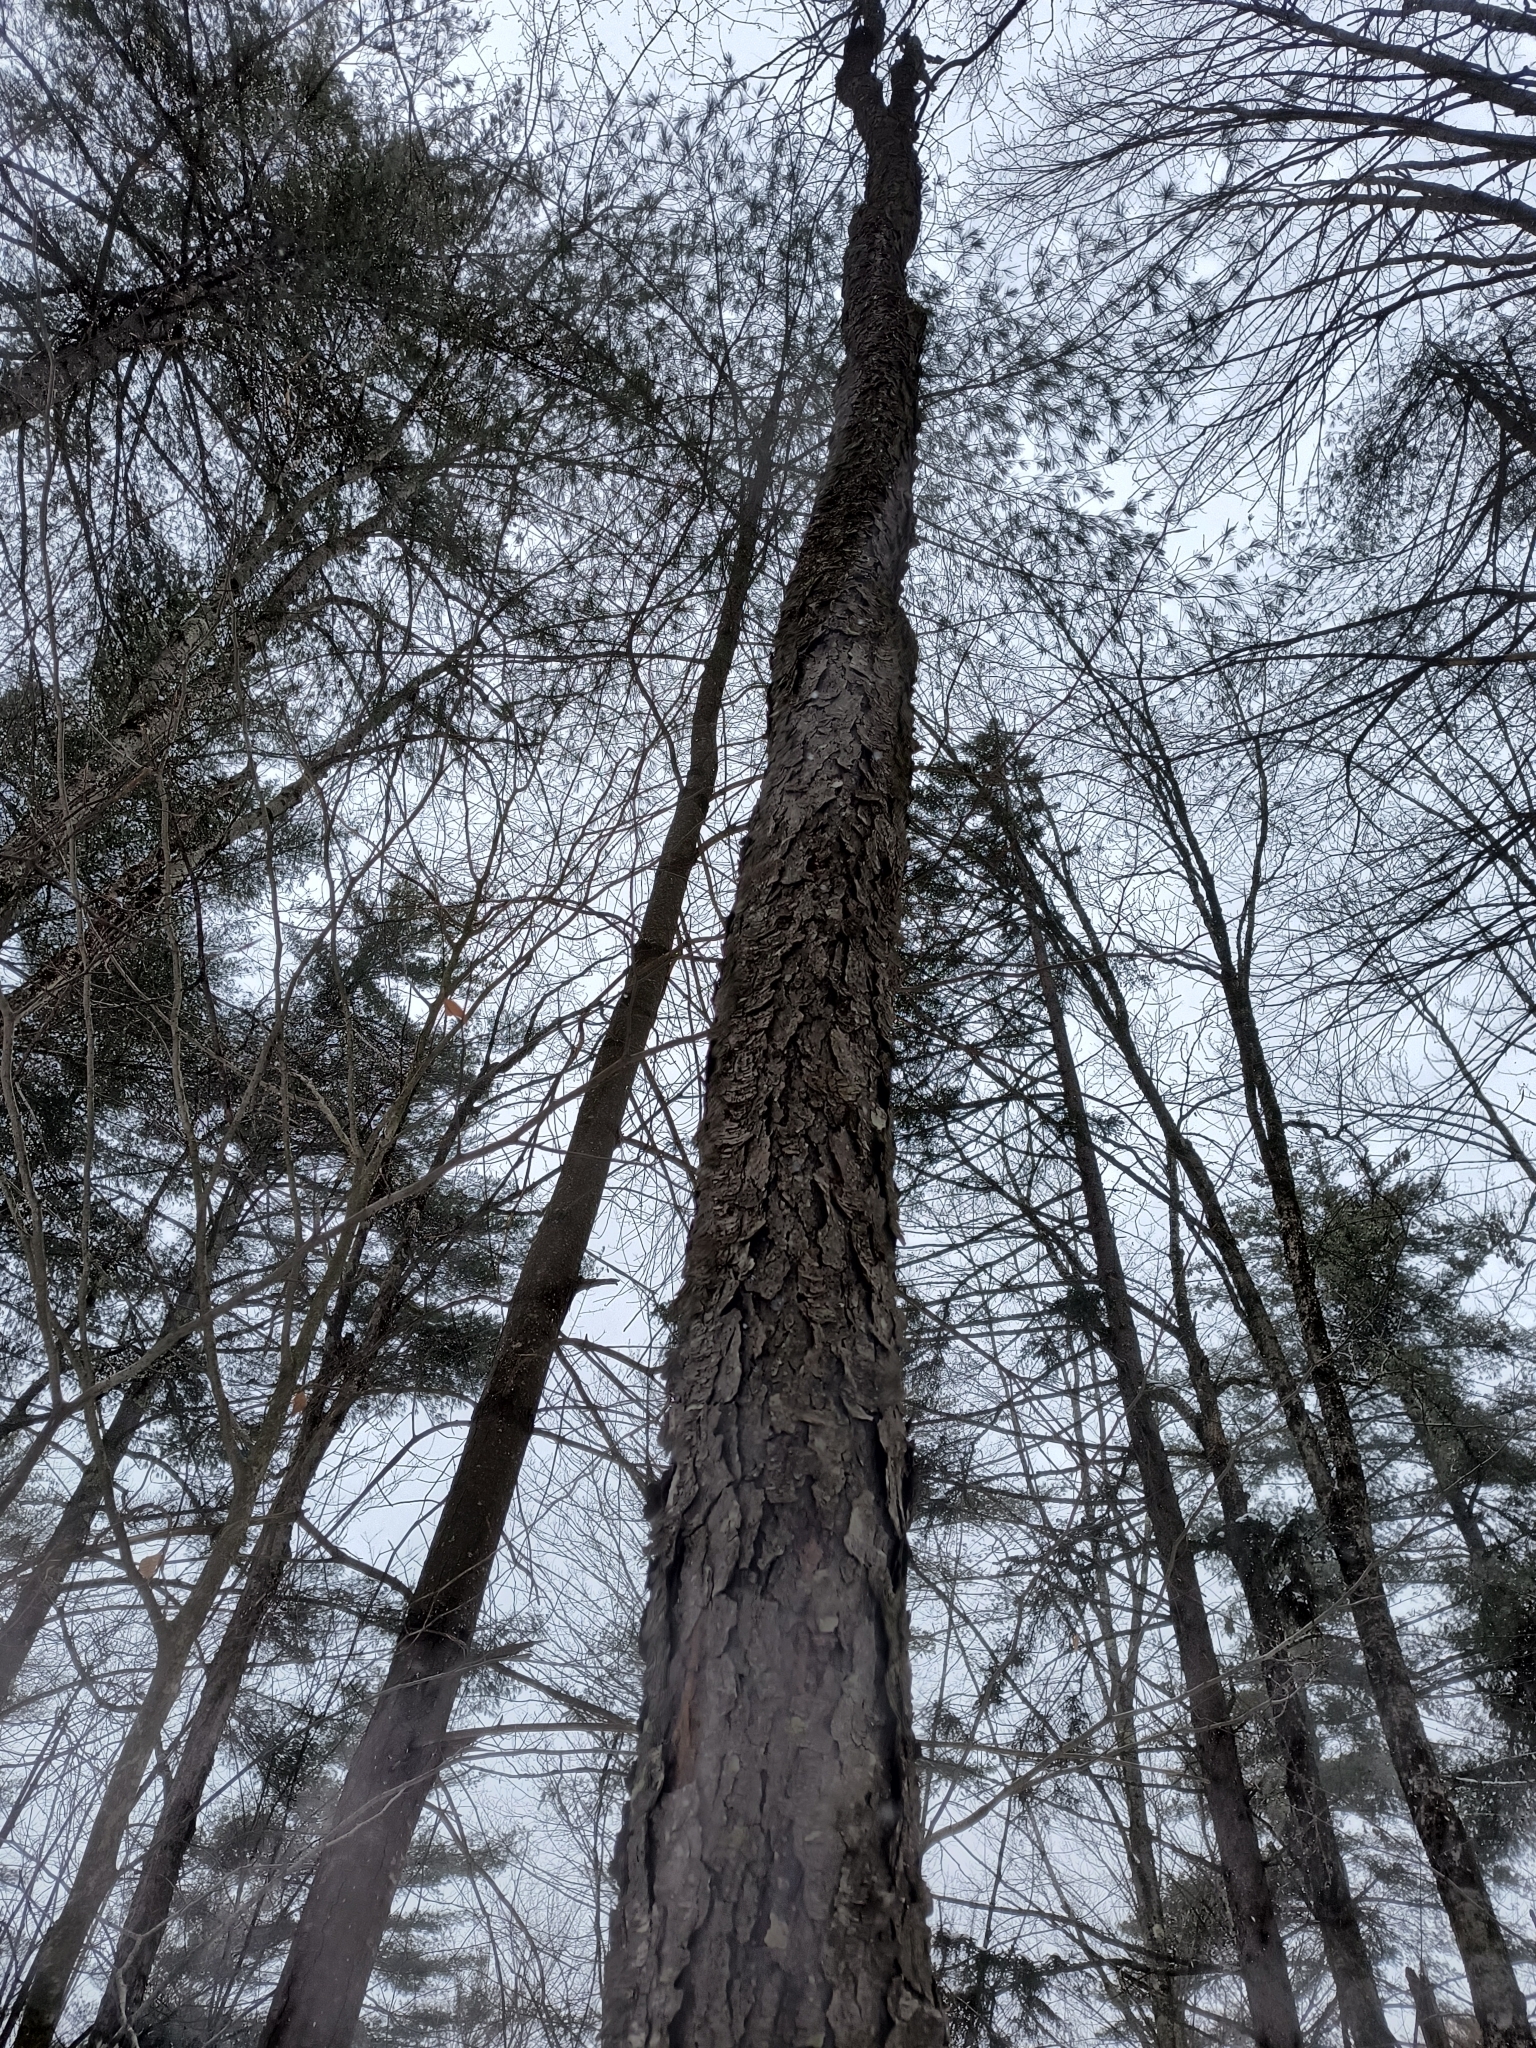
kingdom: Plantae
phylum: Tracheophyta
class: Magnoliopsida
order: Rosales
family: Rosaceae
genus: Prunus
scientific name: Prunus serotina
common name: Black cherry
